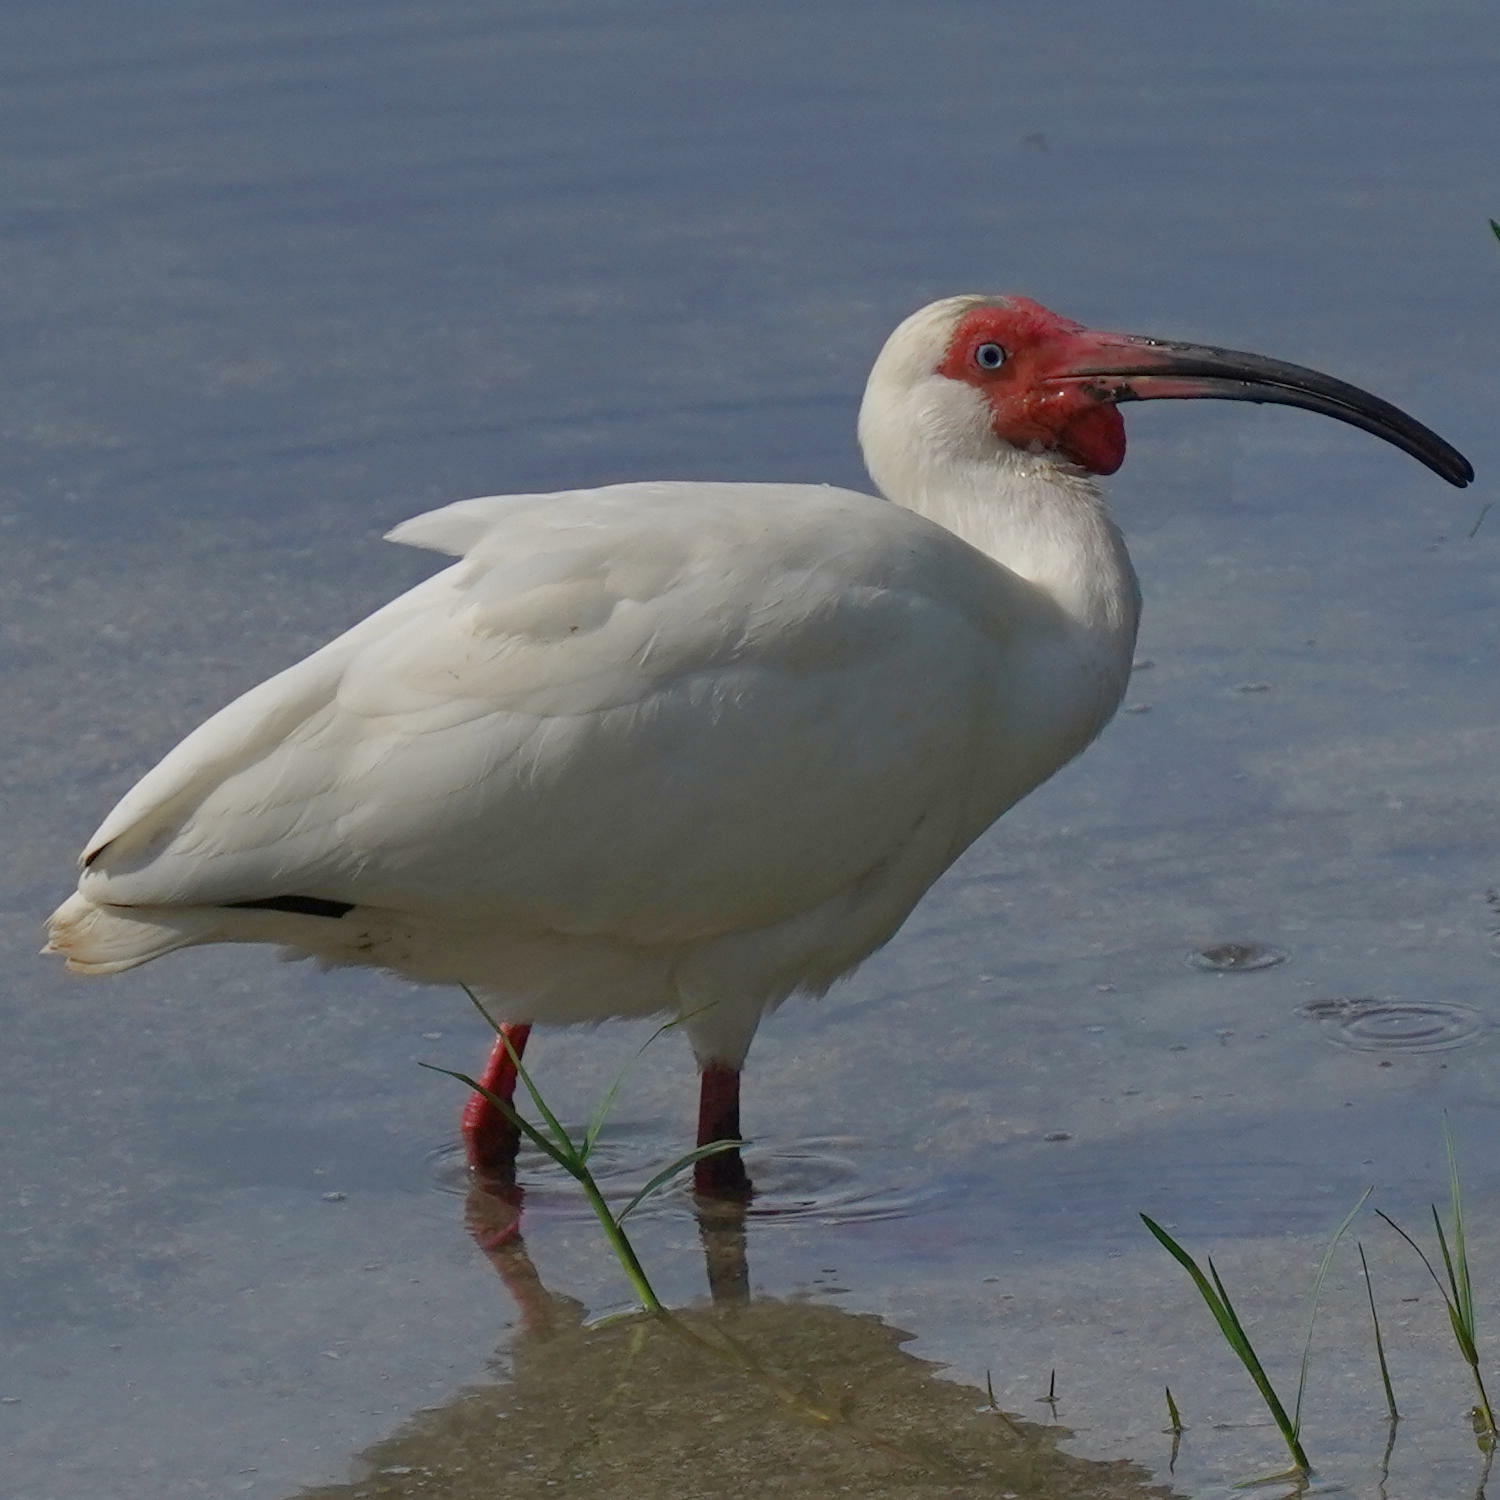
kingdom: Animalia
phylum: Chordata
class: Aves
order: Pelecaniformes
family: Threskiornithidae
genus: Eudocimus
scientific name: Eudocimus albus
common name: White ibis
